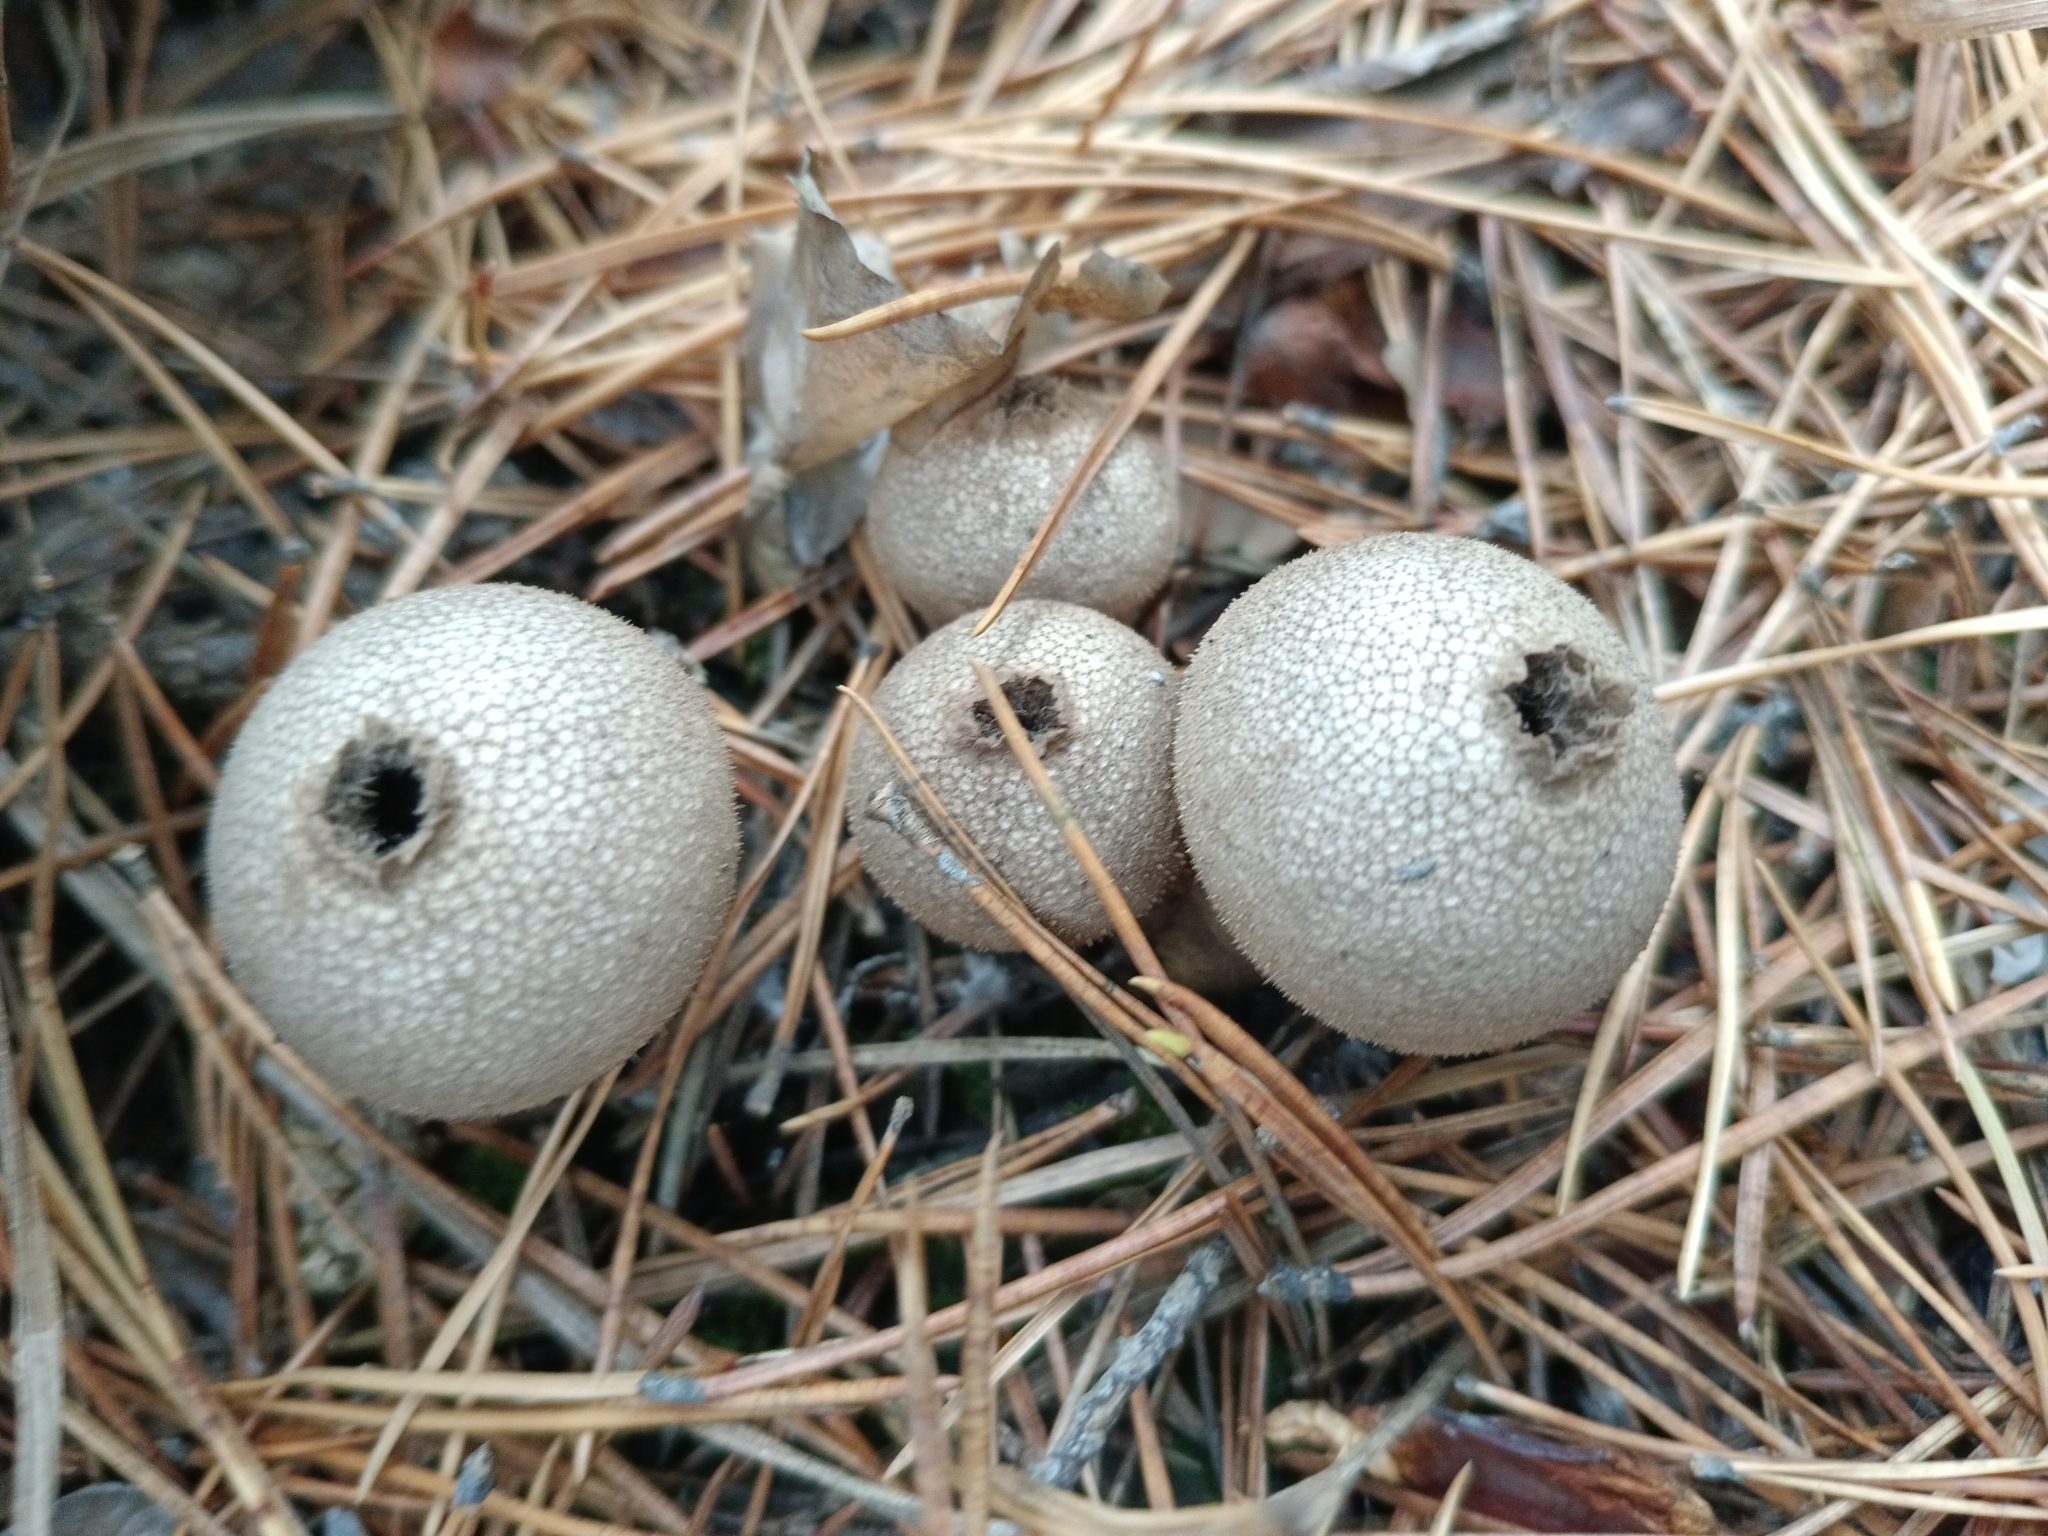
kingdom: Fungi
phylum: Basidiomycota
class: Agaricomycetes
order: Agaricales
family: Lycoperdaceae
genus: Apioperdon
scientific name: Apioperdon pyriforme
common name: Pear-shaped puffball
